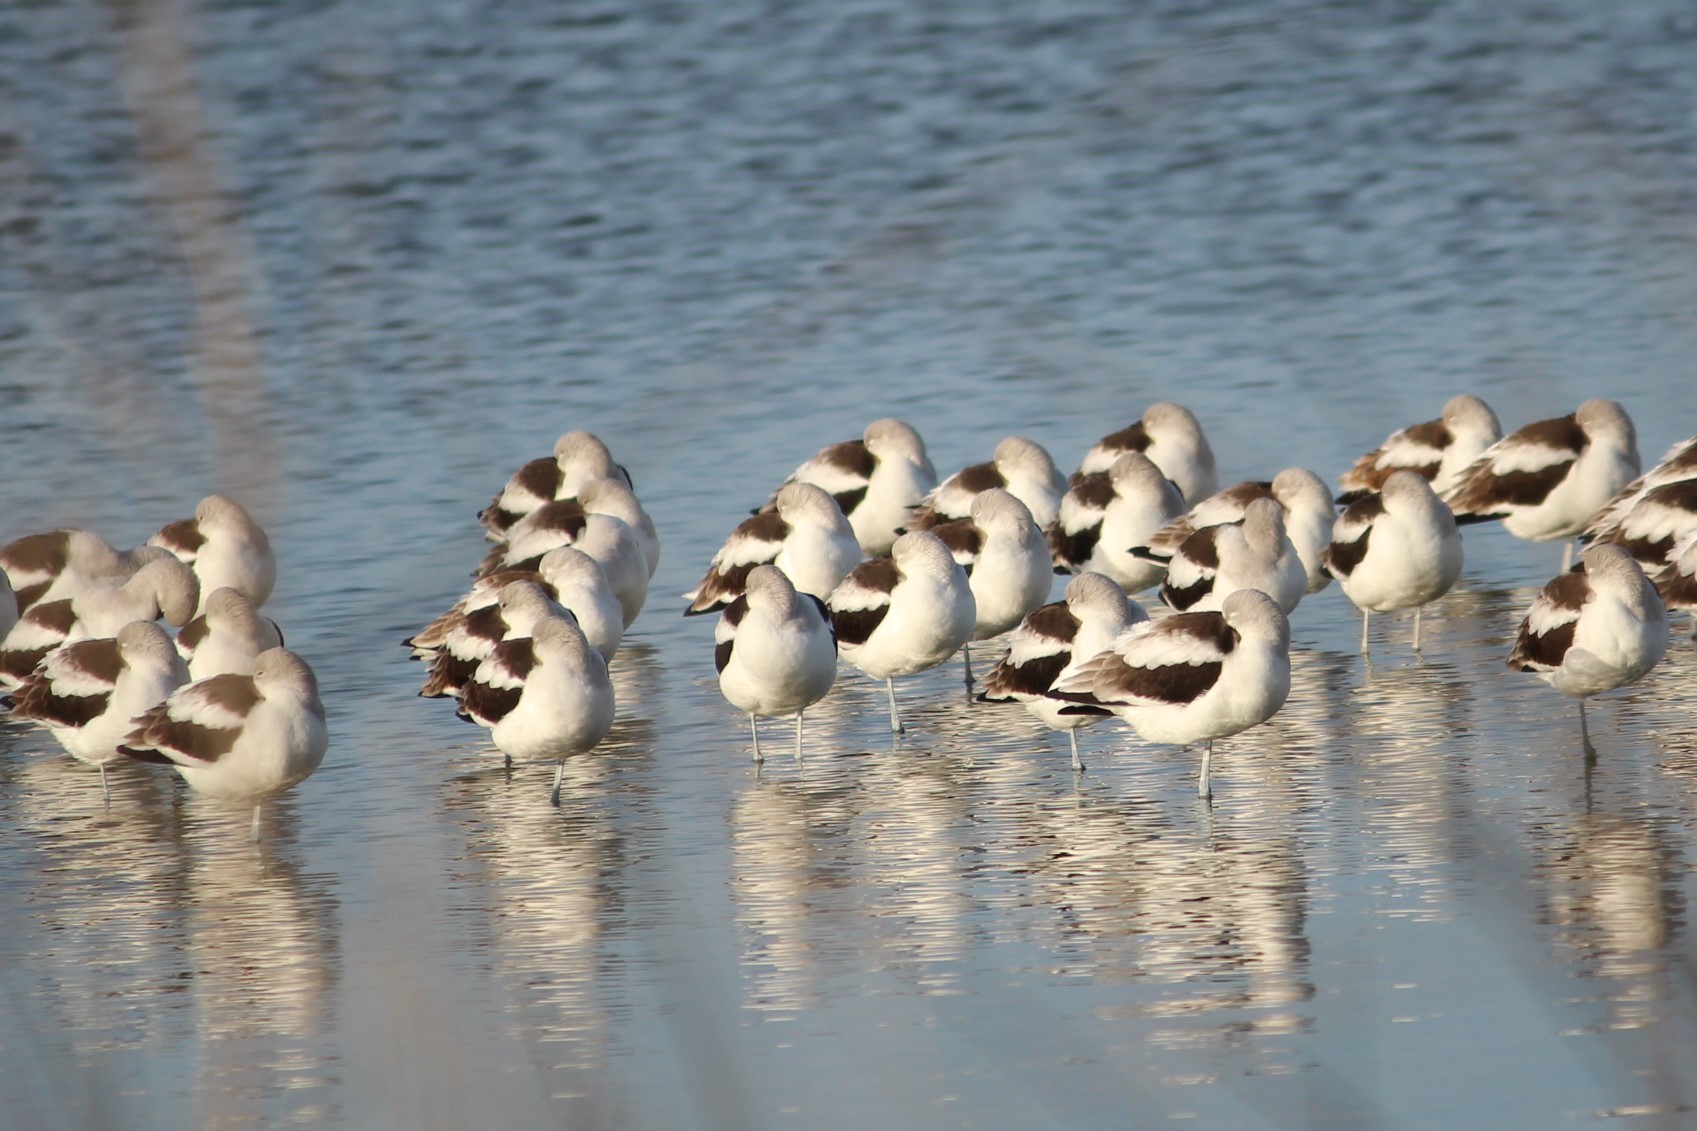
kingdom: Animalia
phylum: Chordata
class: Aves
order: Charadriiformes
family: Recurvirostridae
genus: Recurvirostra
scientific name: Recurvirostra americana
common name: American avocet
